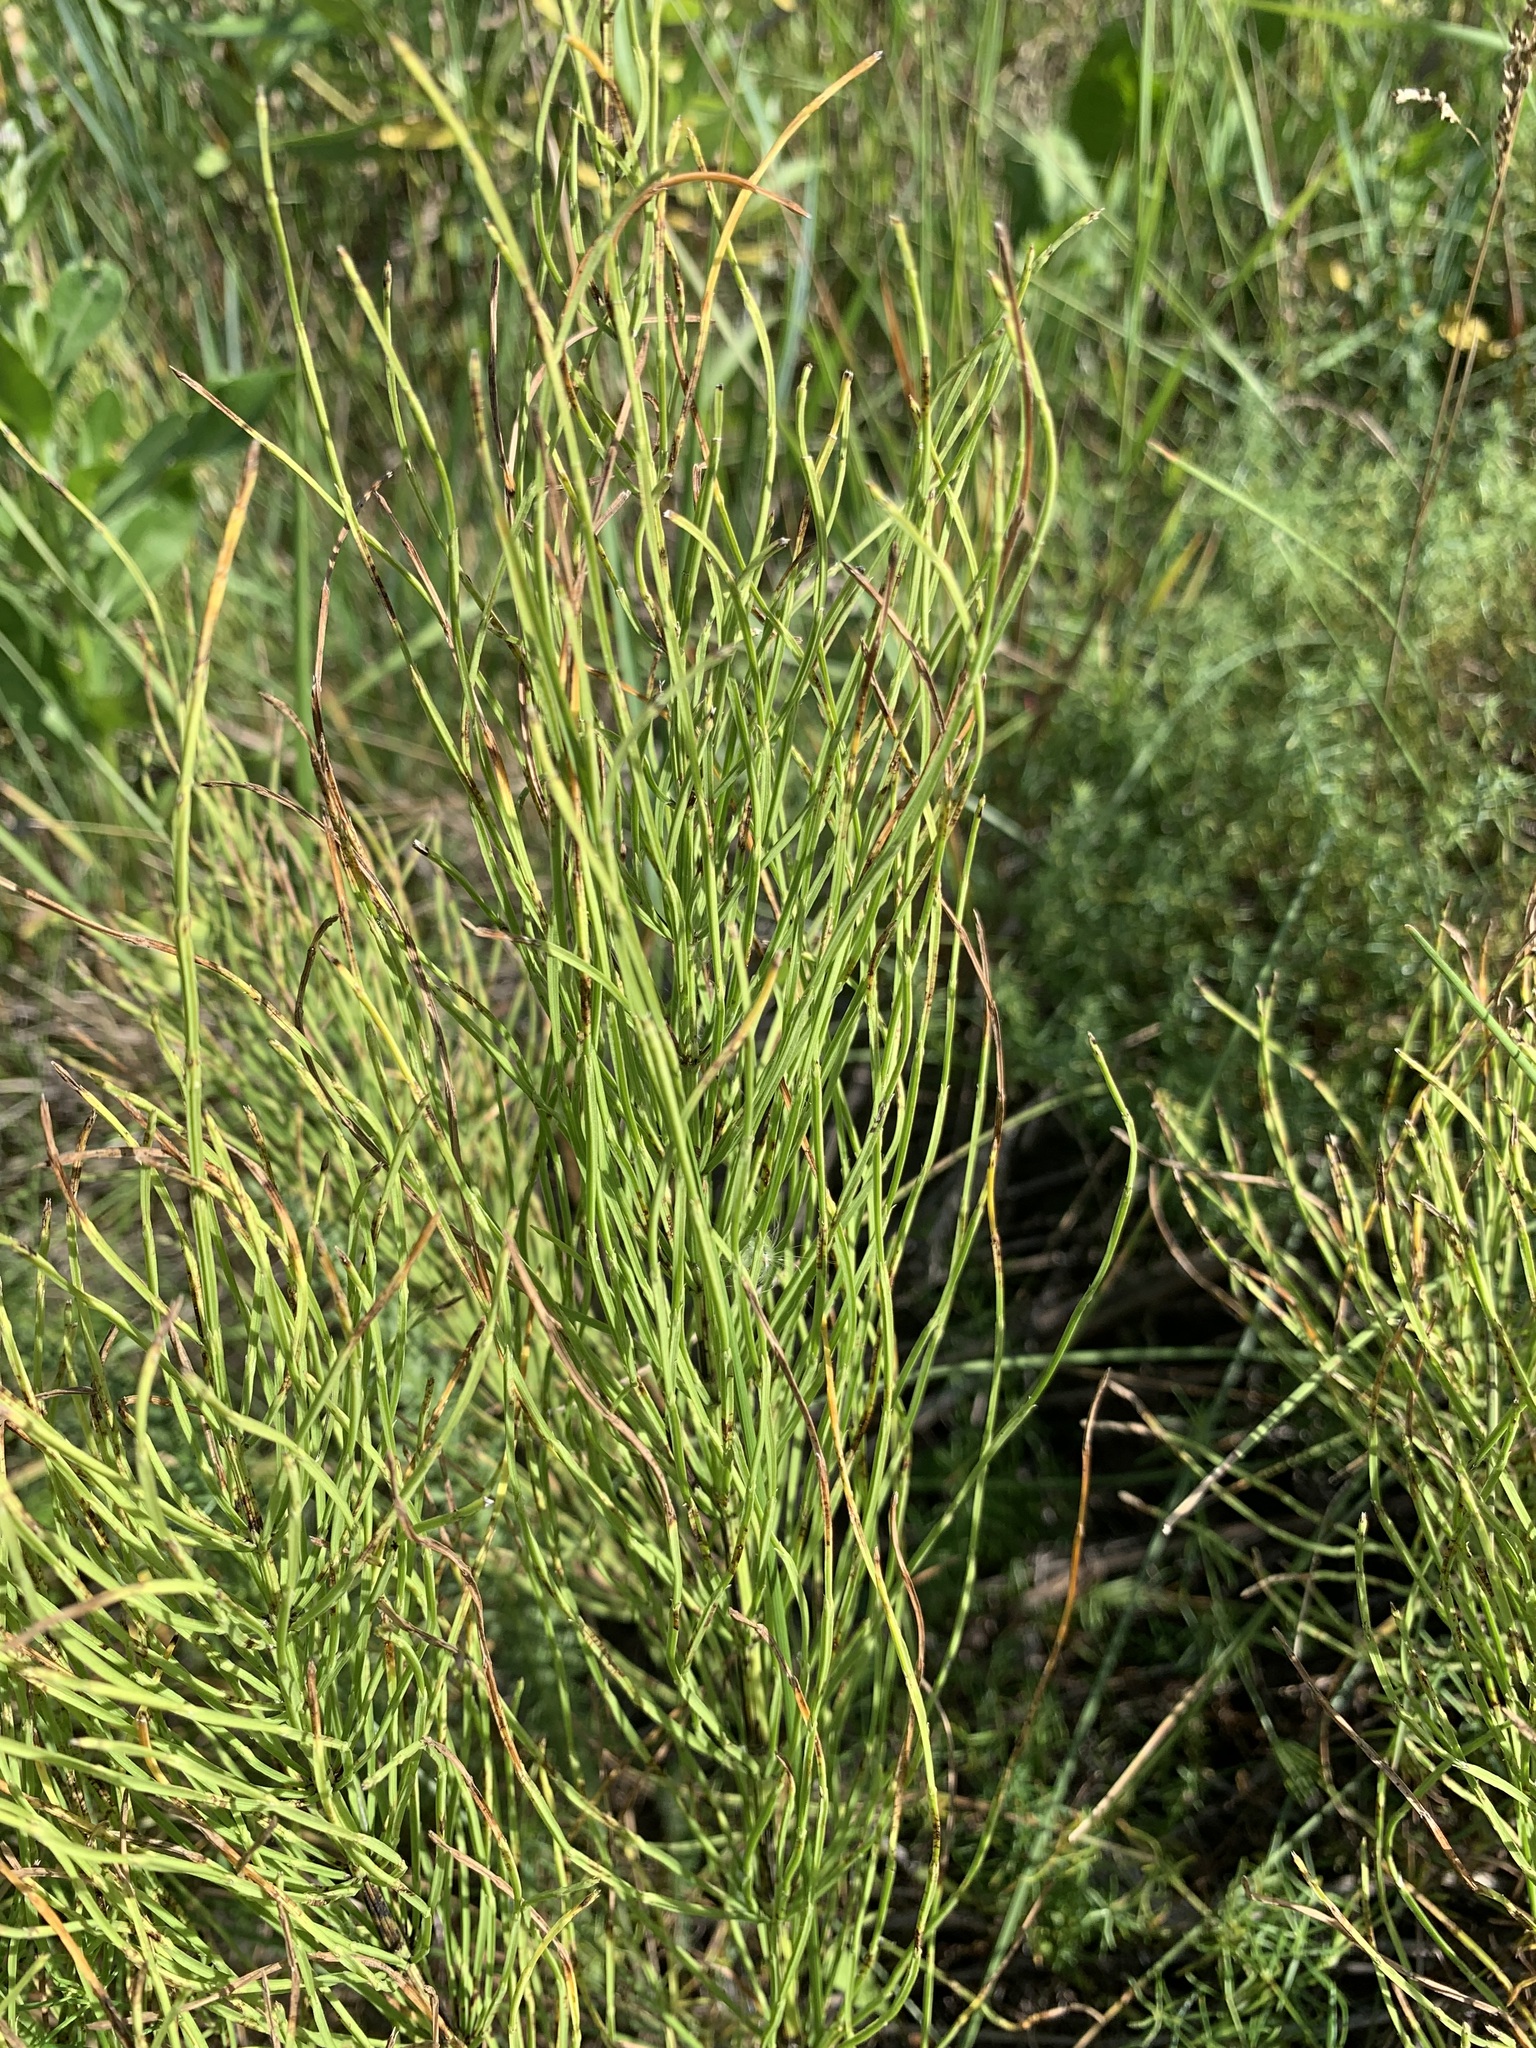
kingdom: Plantae
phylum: Tracheophyta
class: Polypodiopsida
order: Equisetales
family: Equisetaceae
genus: Equisetum
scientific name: Equisetum arvense
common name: Field horsetail
